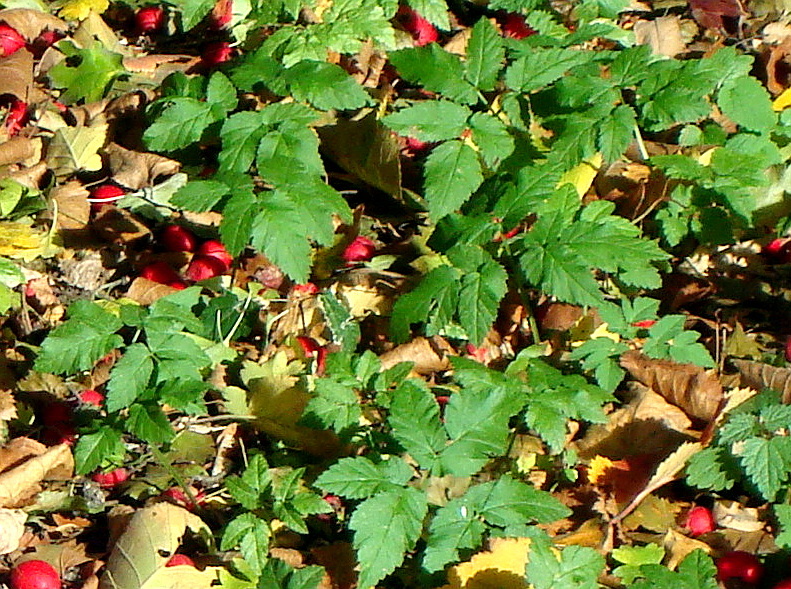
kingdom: Plantae
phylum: Tracheophyta
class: Magnoliopsida
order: Apiales
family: Apiaceae
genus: Aegopodium
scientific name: Aegopodium podagraria
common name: Ground-elder
